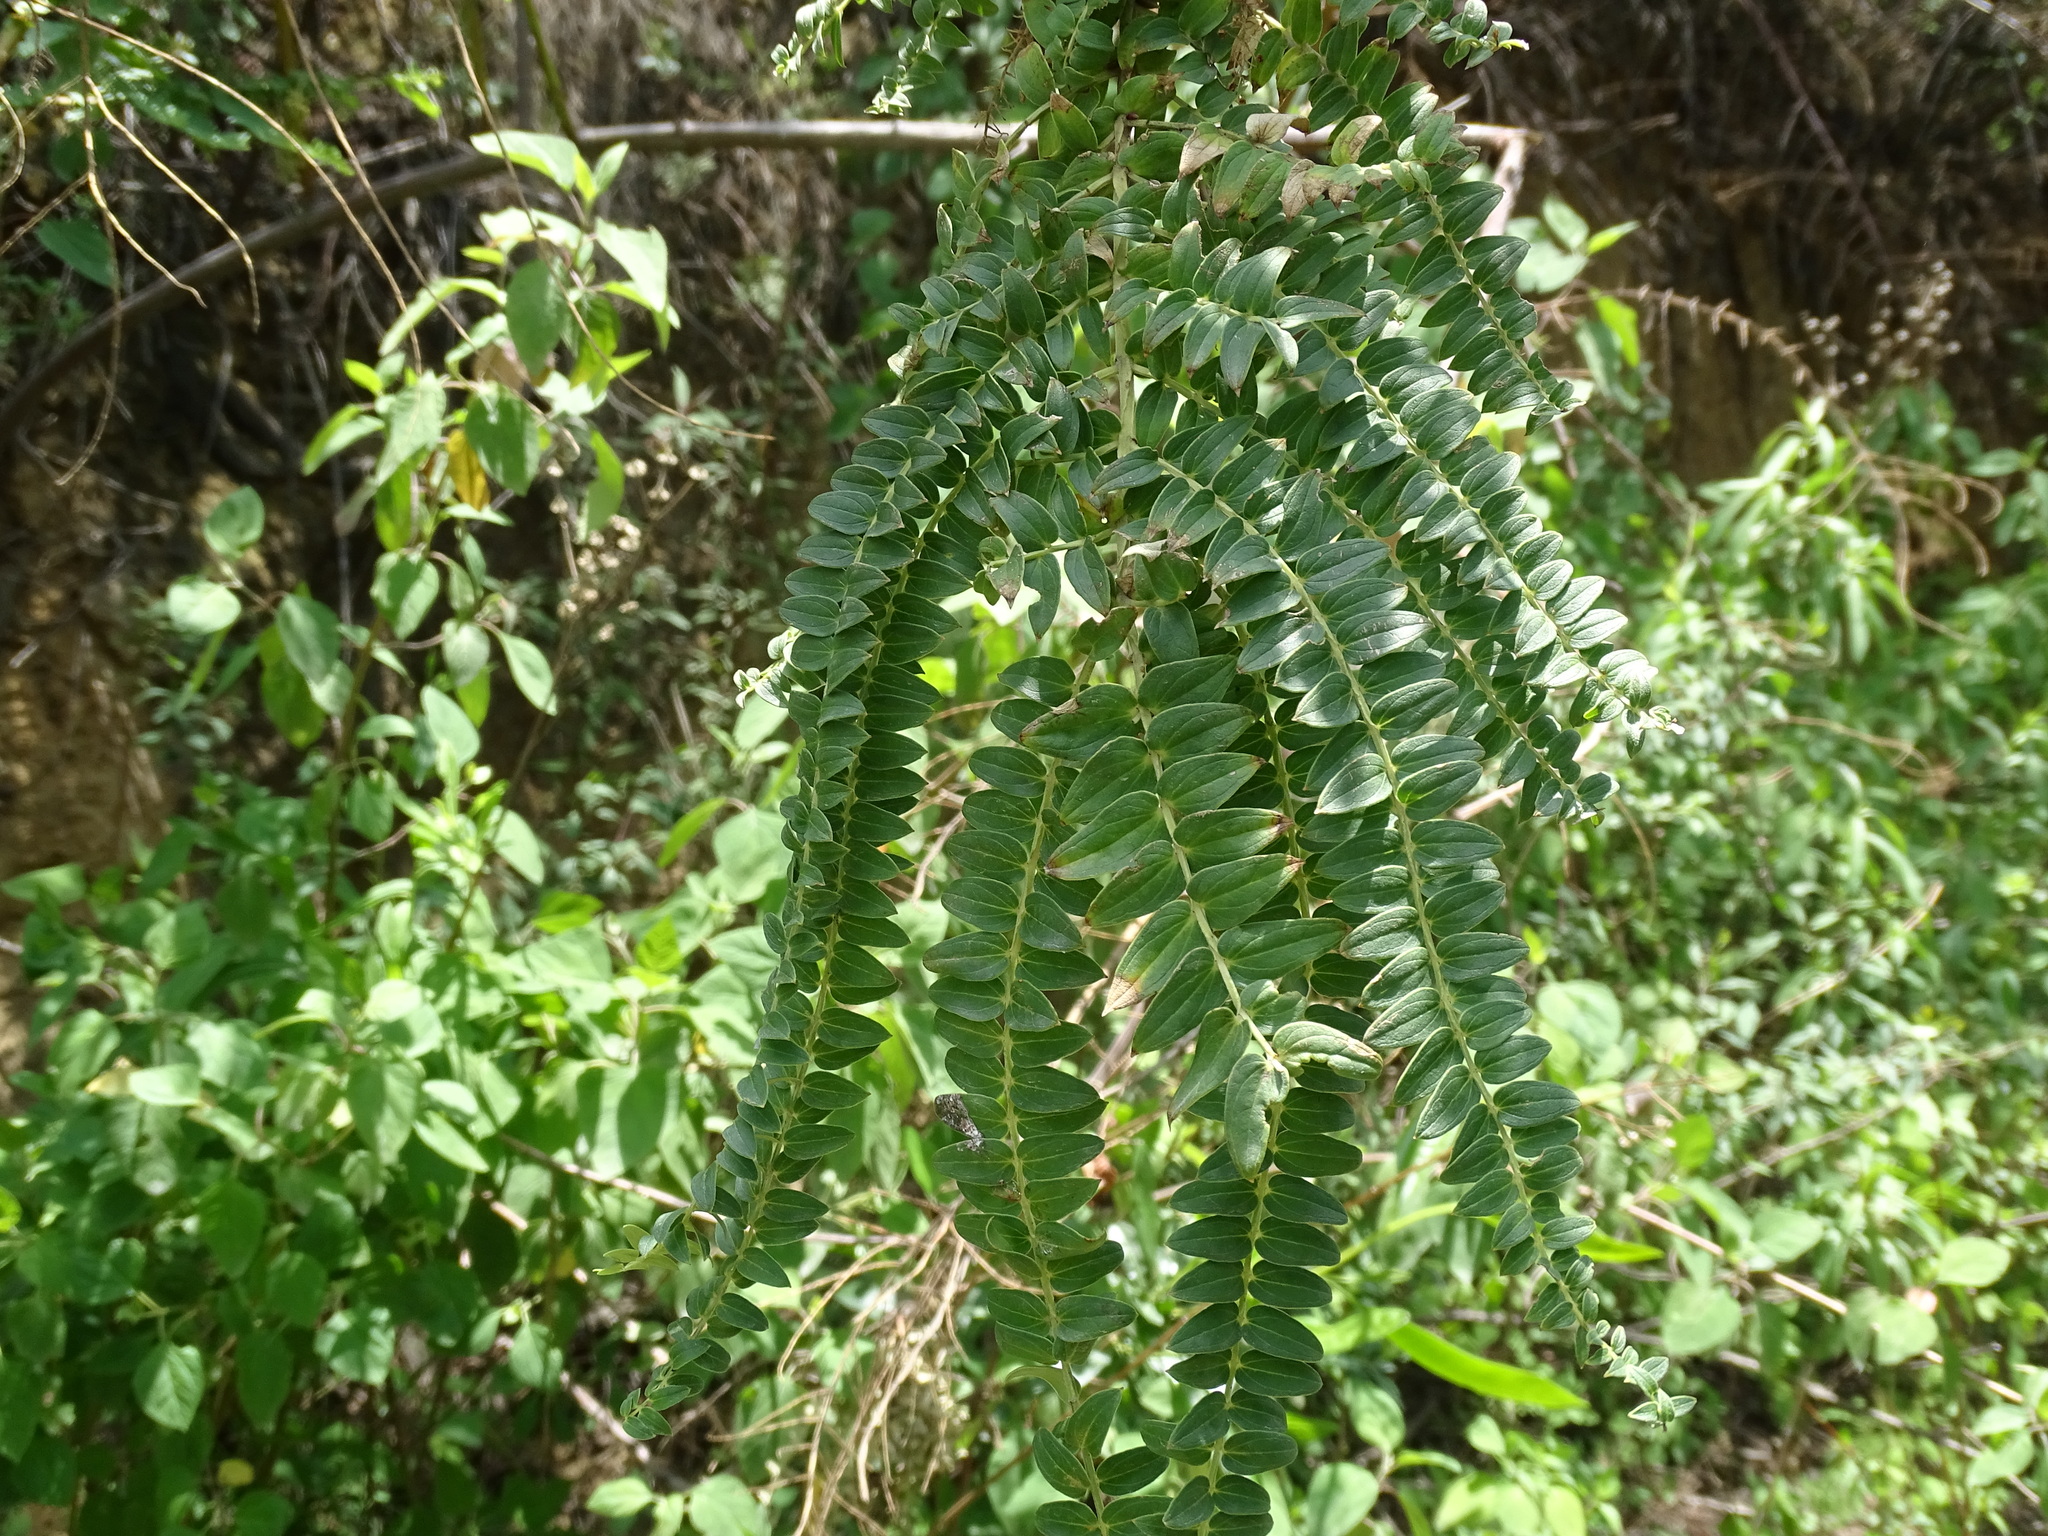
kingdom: Plantae
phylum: Tracheophyta
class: Magnoliopsida
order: Cucurbitales
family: Coriariaceae
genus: Coriaria
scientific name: Coriaria ruscifolia
